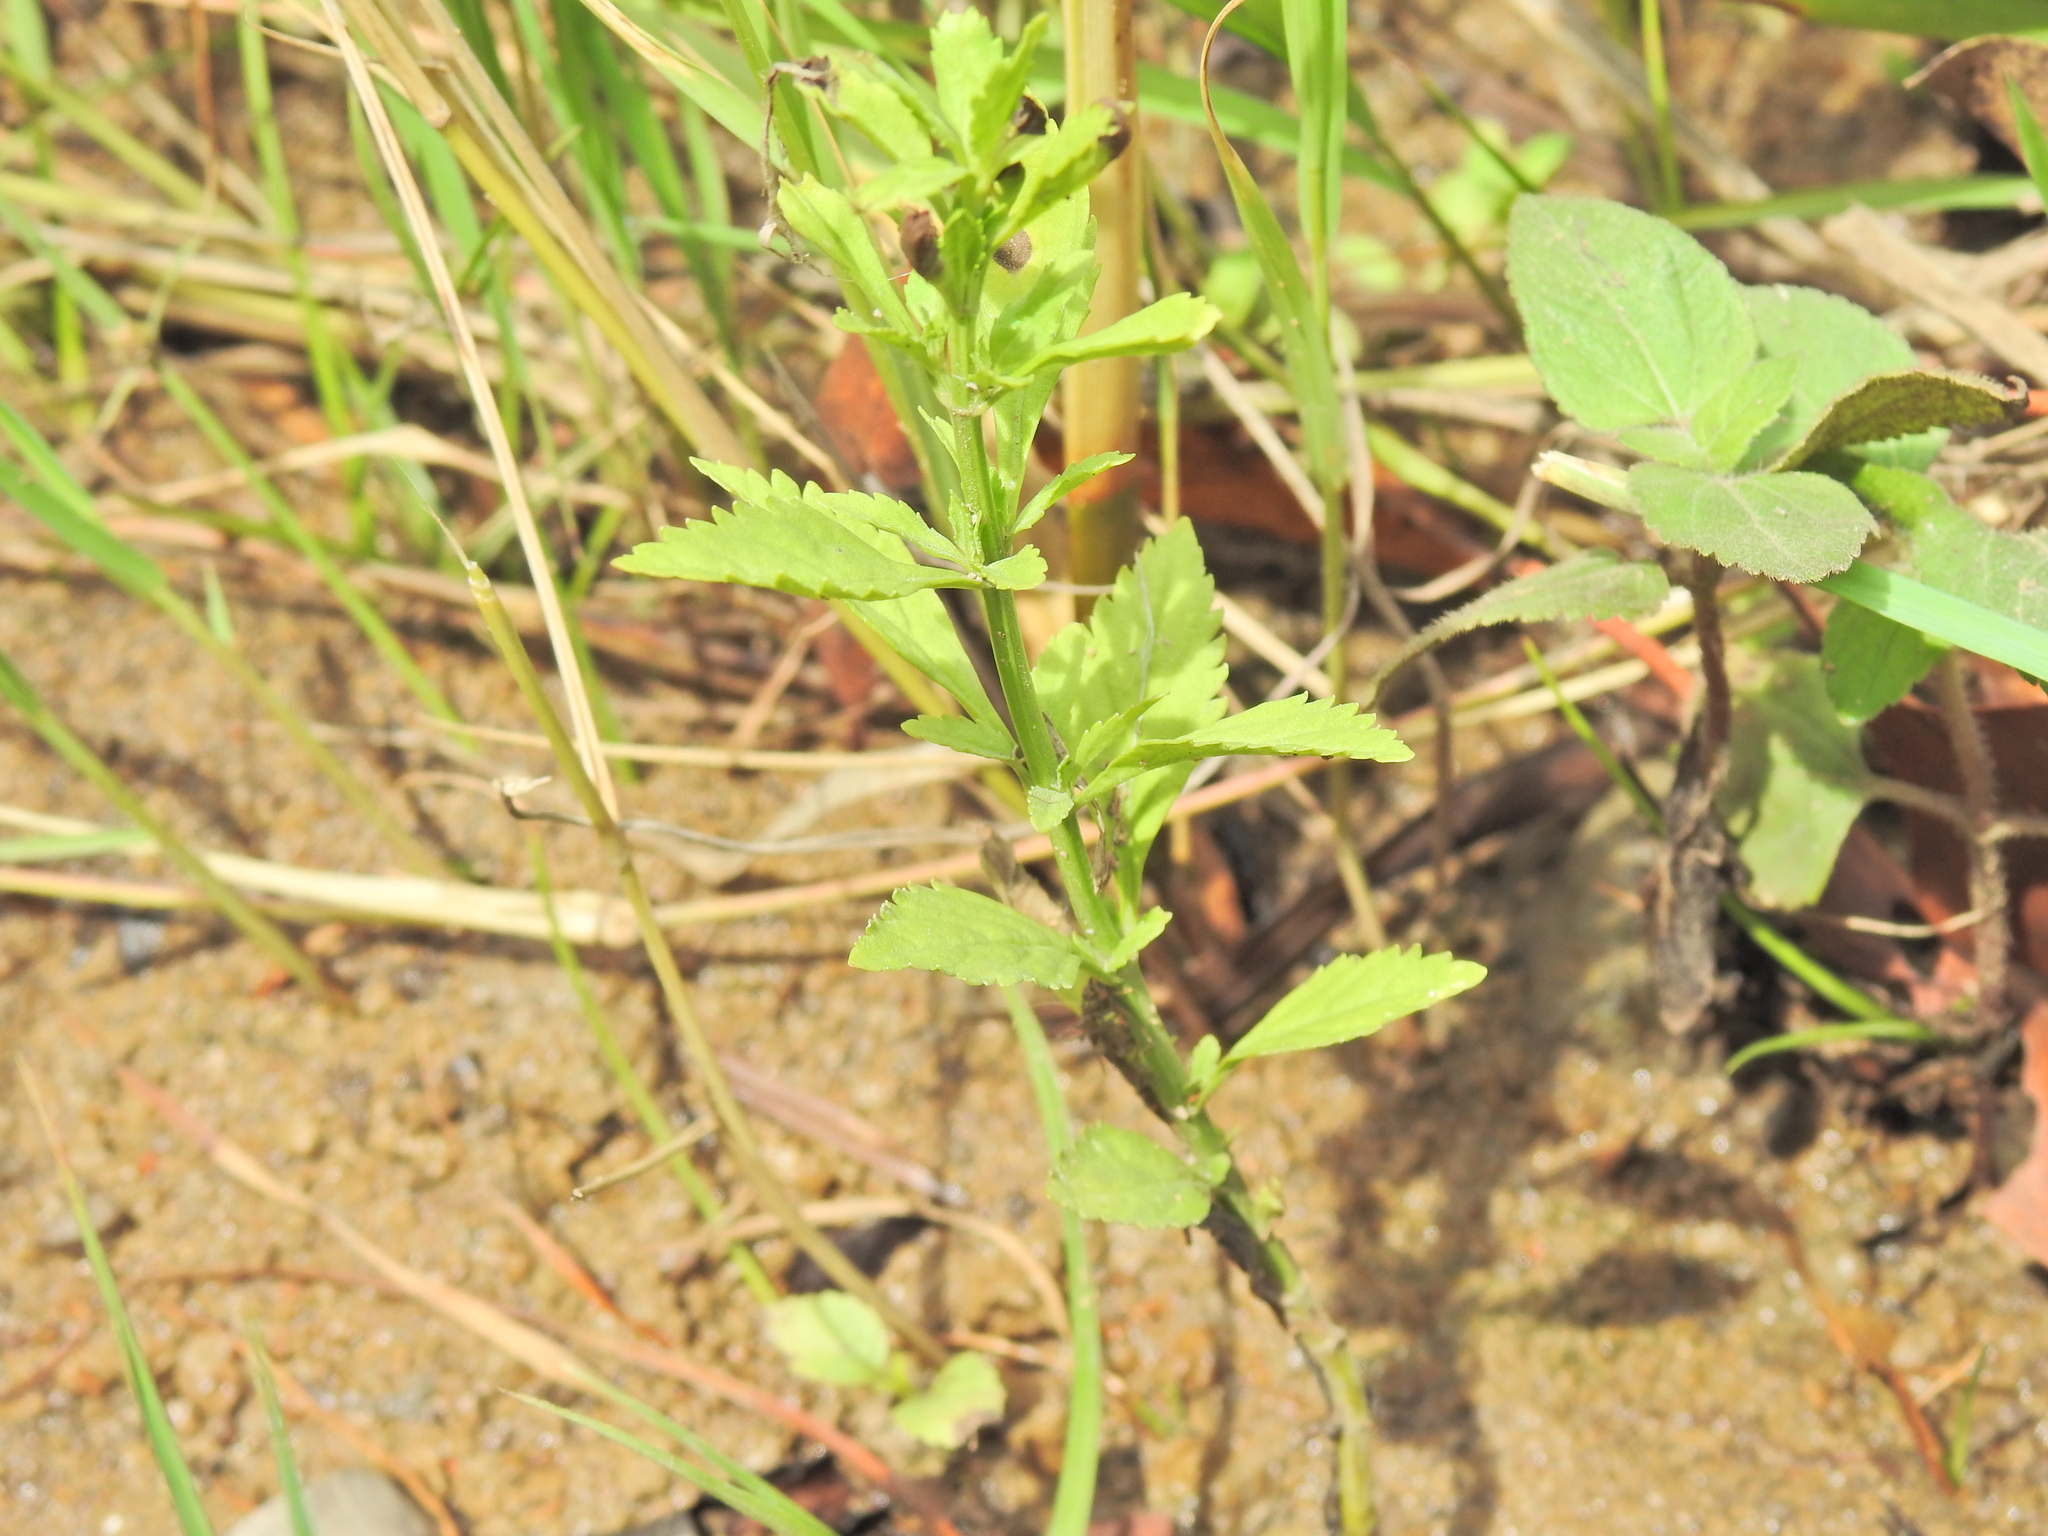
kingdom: Plantae
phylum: Tracheophyta
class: Magnoliopsida
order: Lamiales
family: Plantaginaceae
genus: Scoparia
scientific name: Scoparia dulcis
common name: Scoparia-weed
